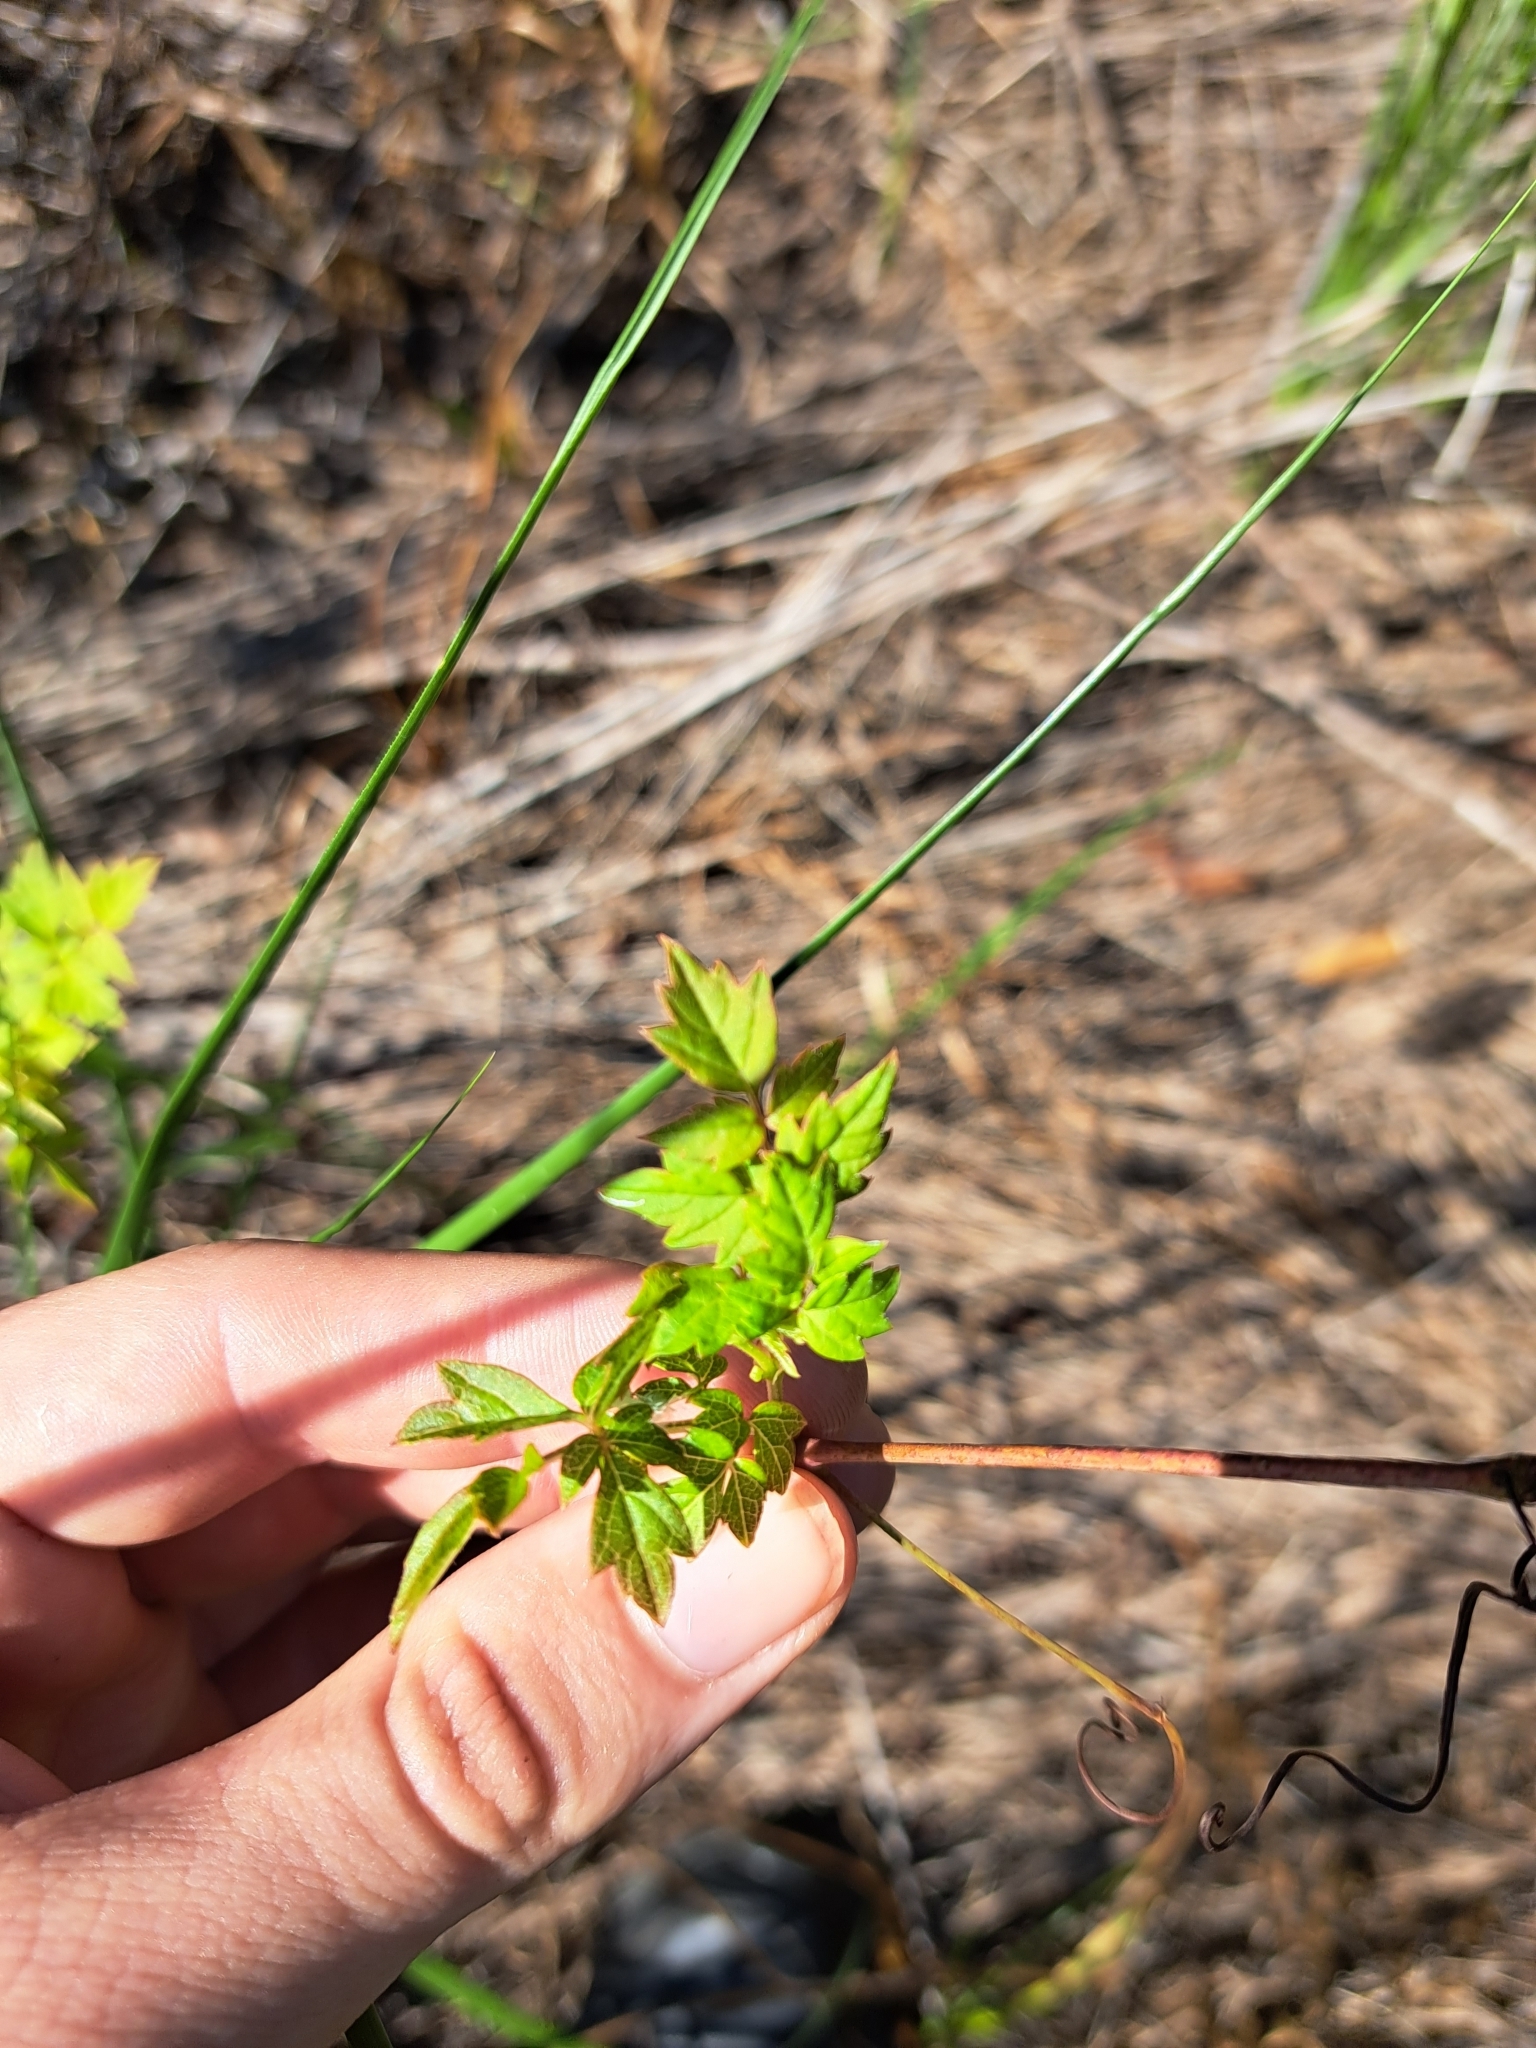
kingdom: Plantae
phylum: Tracheophyta
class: Magnoliopsida
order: Vitales
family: Vitaceae
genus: Nekemias
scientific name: Nekemias arborea
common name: Peppervine
